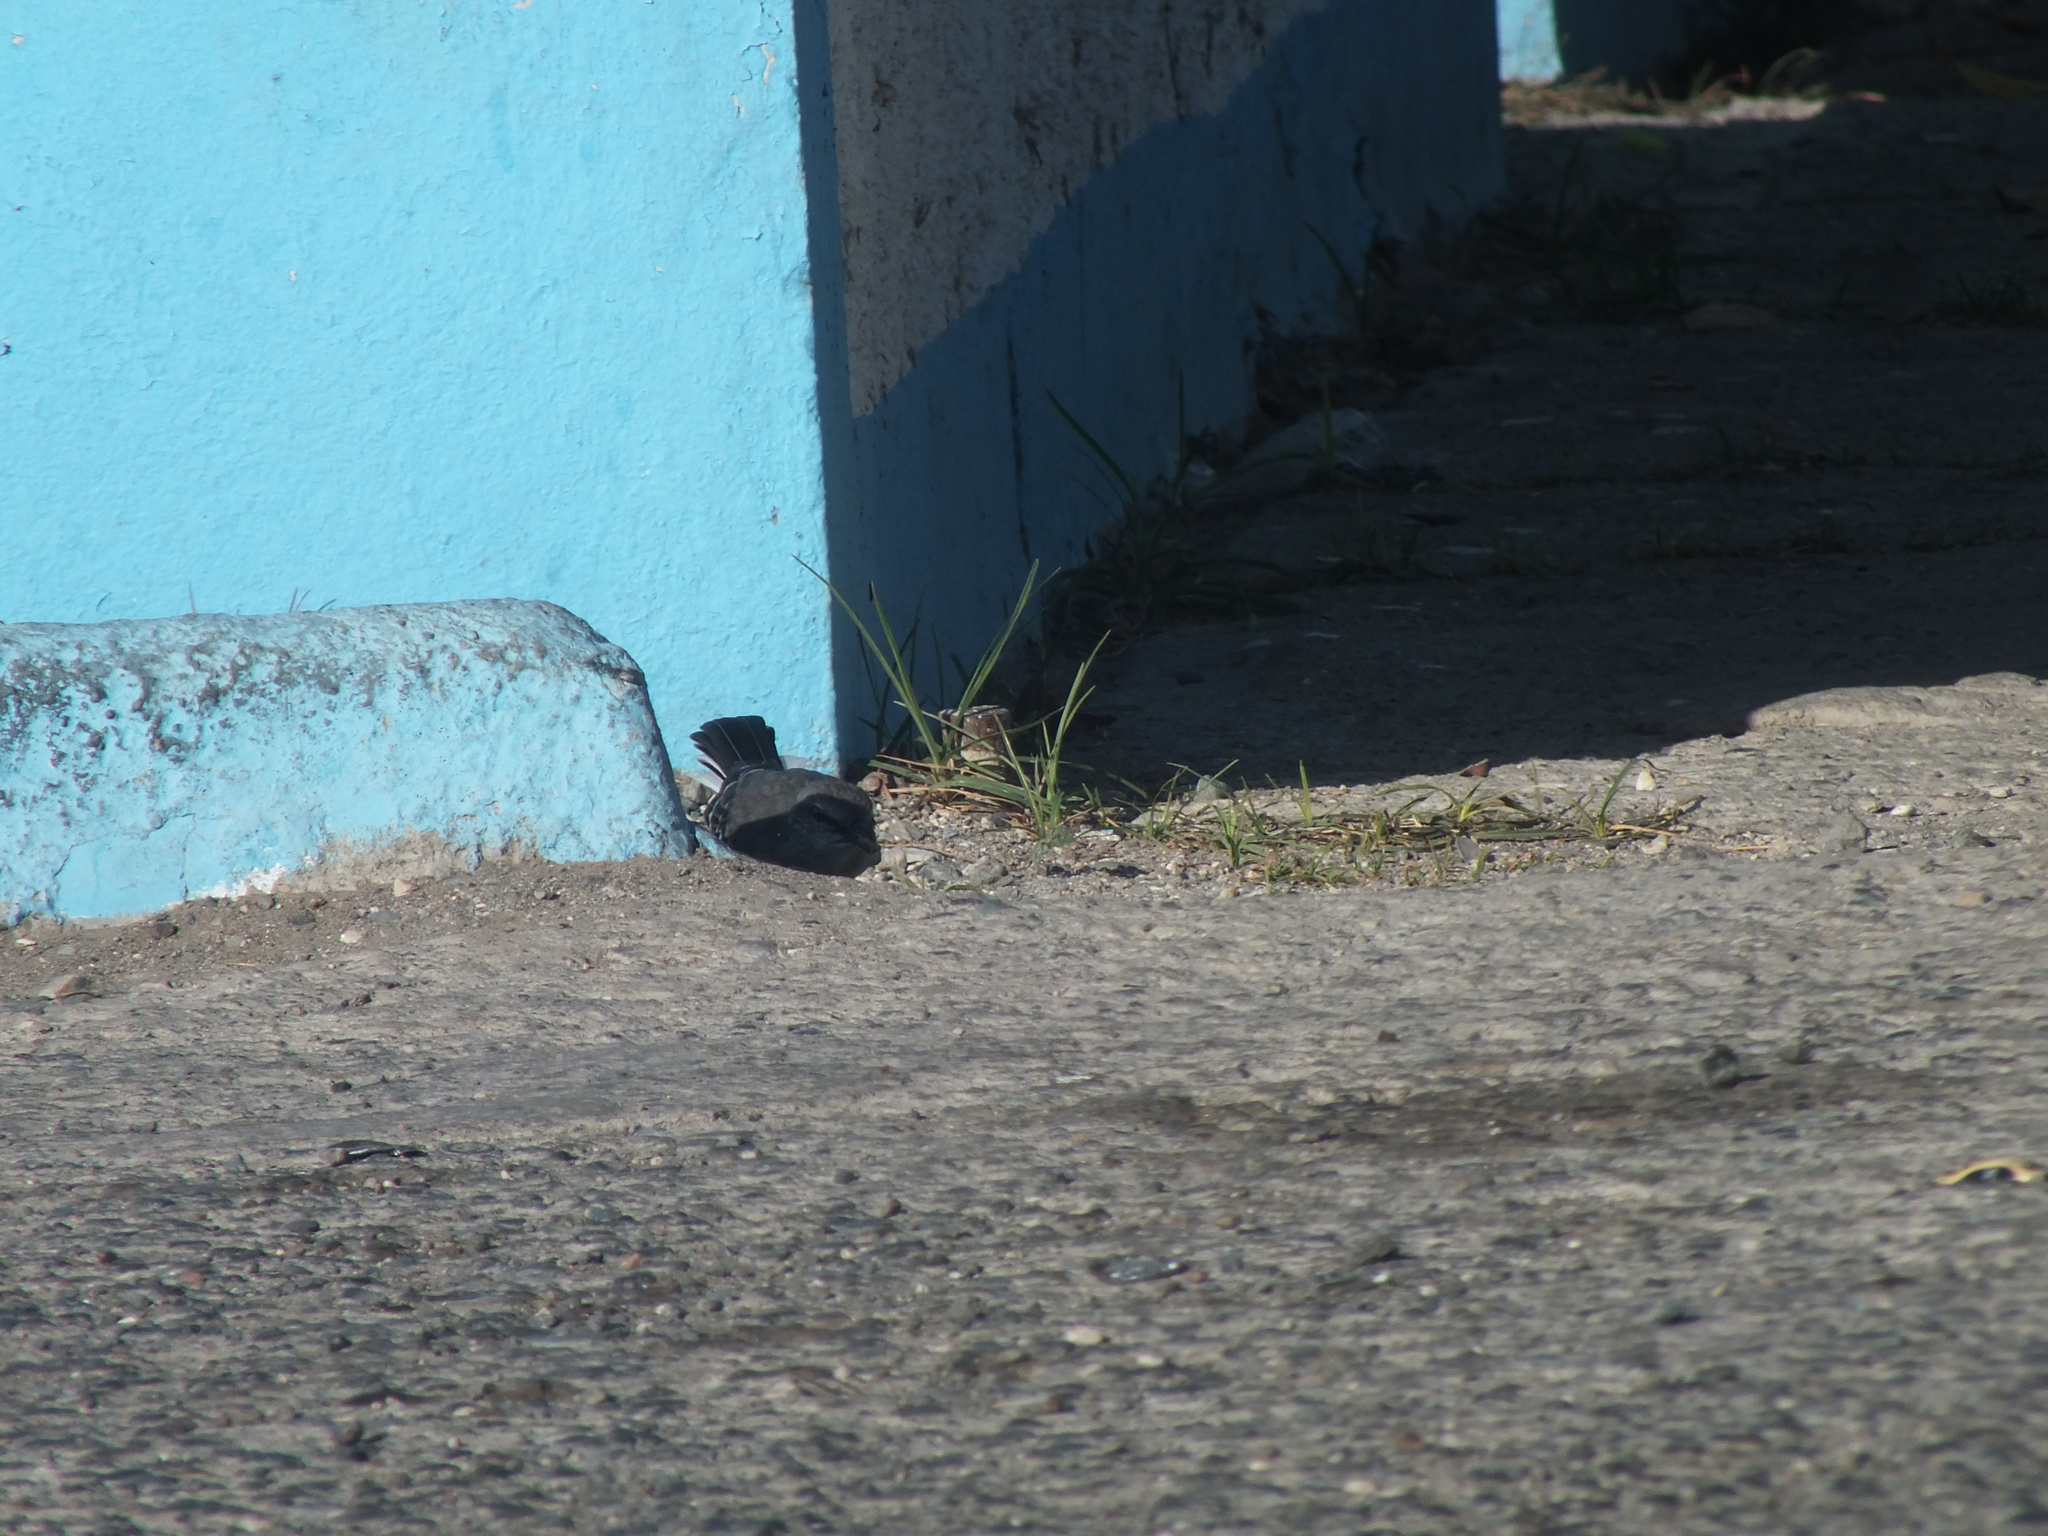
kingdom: Animalia
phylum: Chordata
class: Aves
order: Passeriformes
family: Mimidae
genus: Mimus
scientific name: Mimus polyglottos
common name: Northern mockingbird
